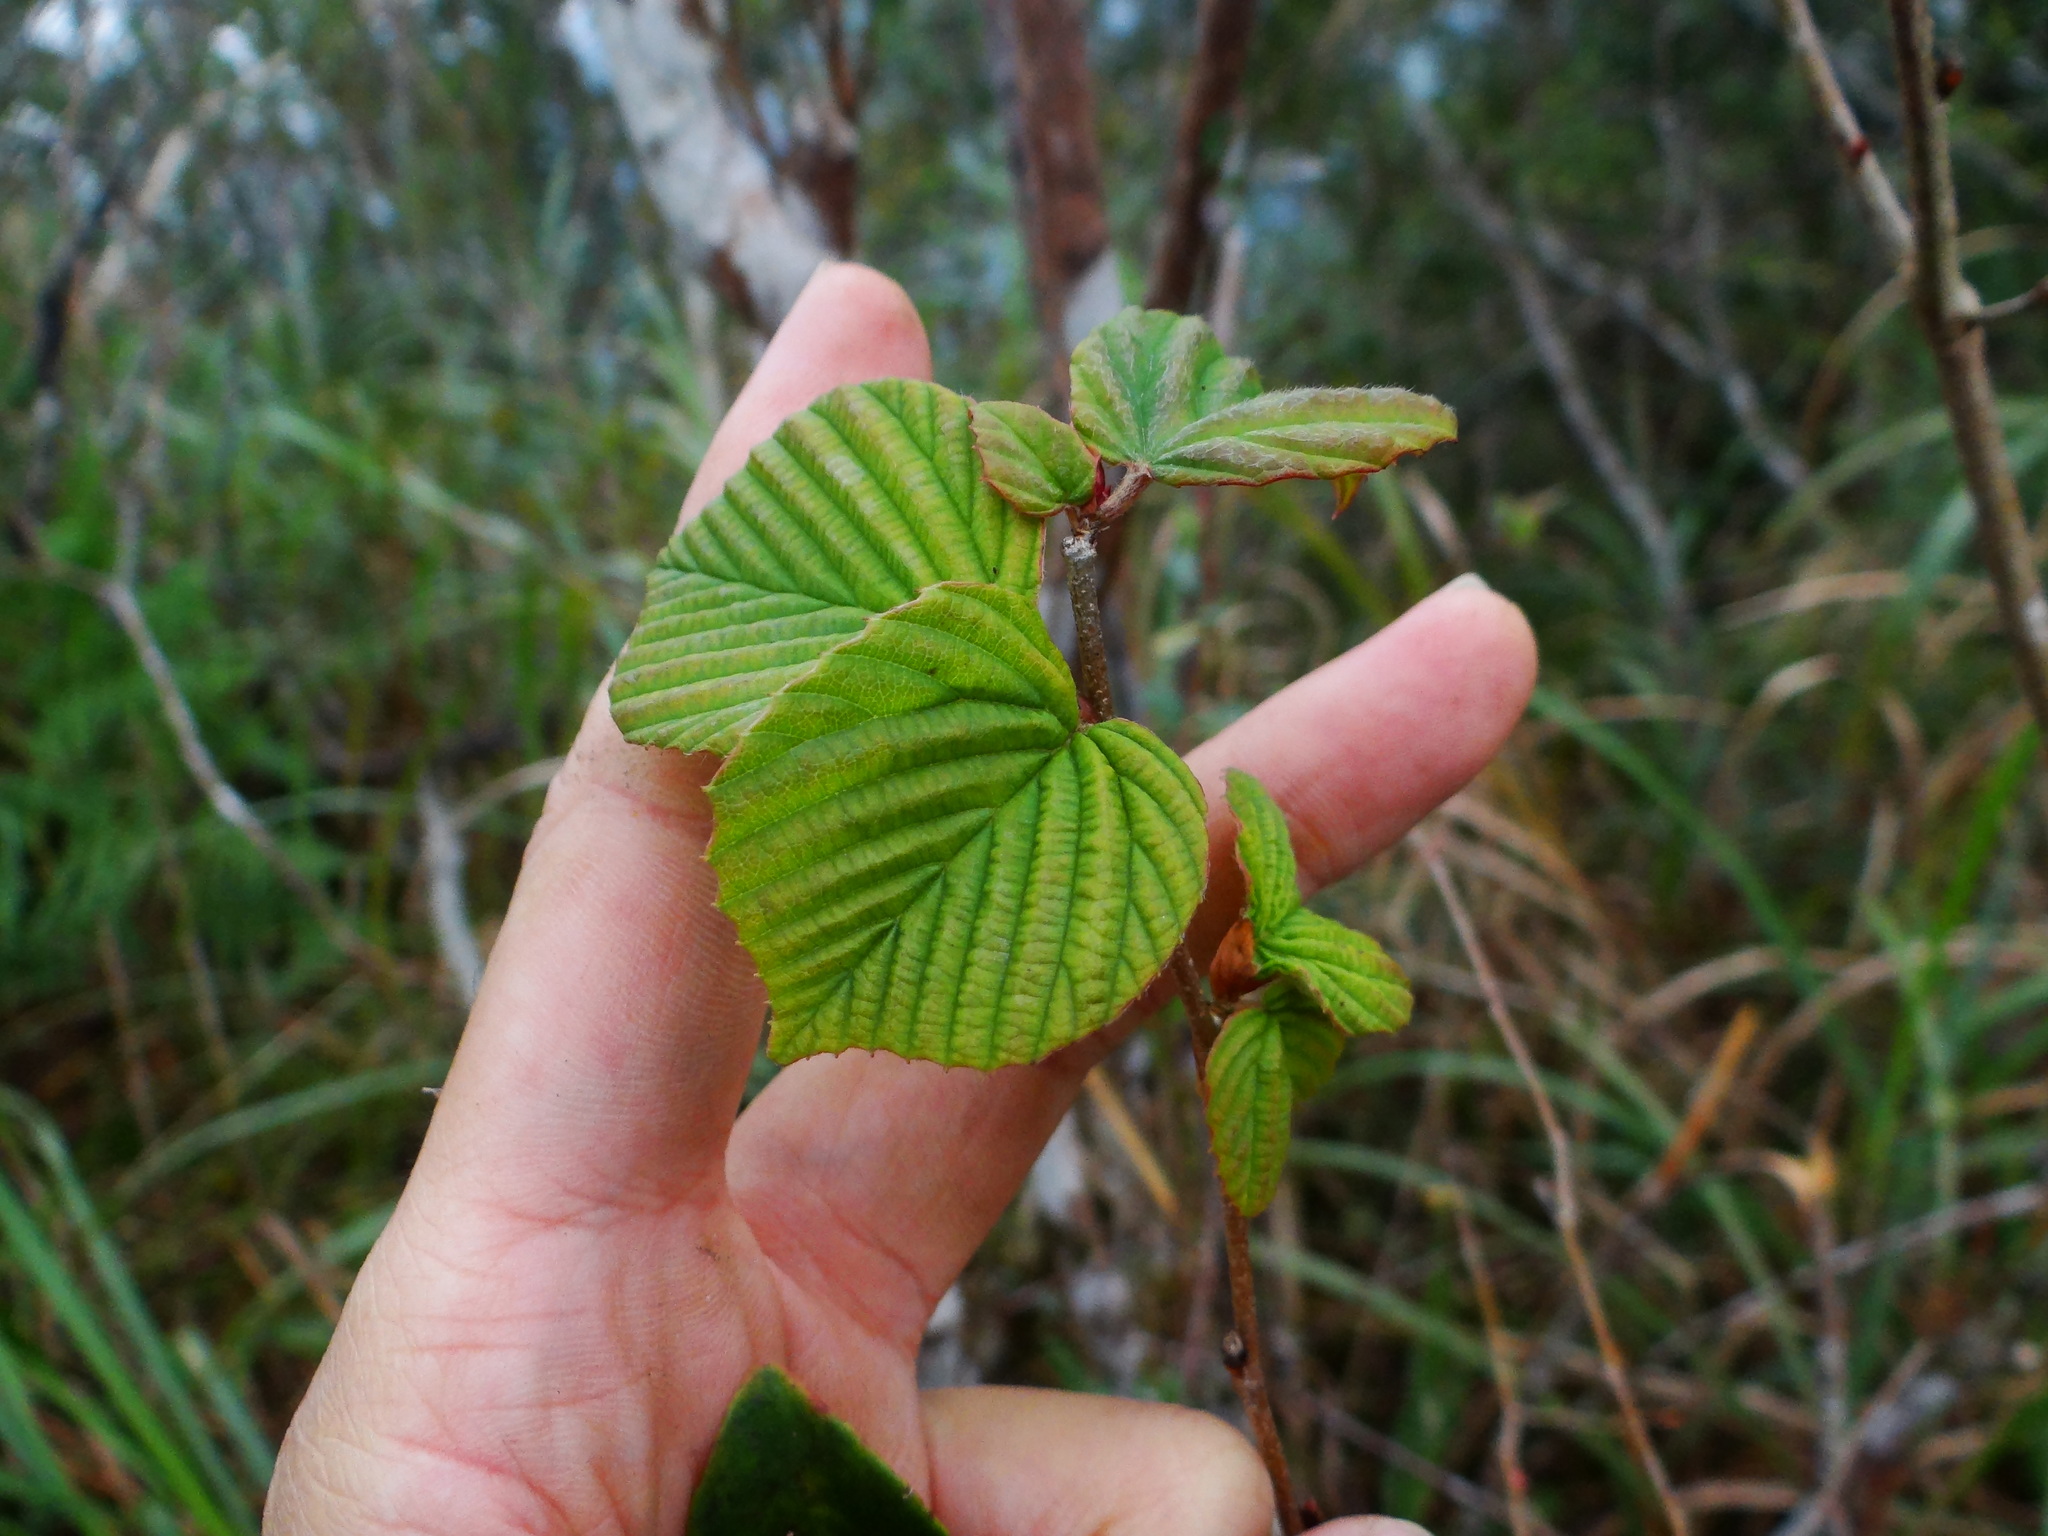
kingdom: Plantae
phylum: Tracheophyta
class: Magnoliopsida
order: Saxifragales
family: Hamamelidaceae
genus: Corylopsis
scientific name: Corylopsis pauciflora
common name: Buttercup winter-hazel
